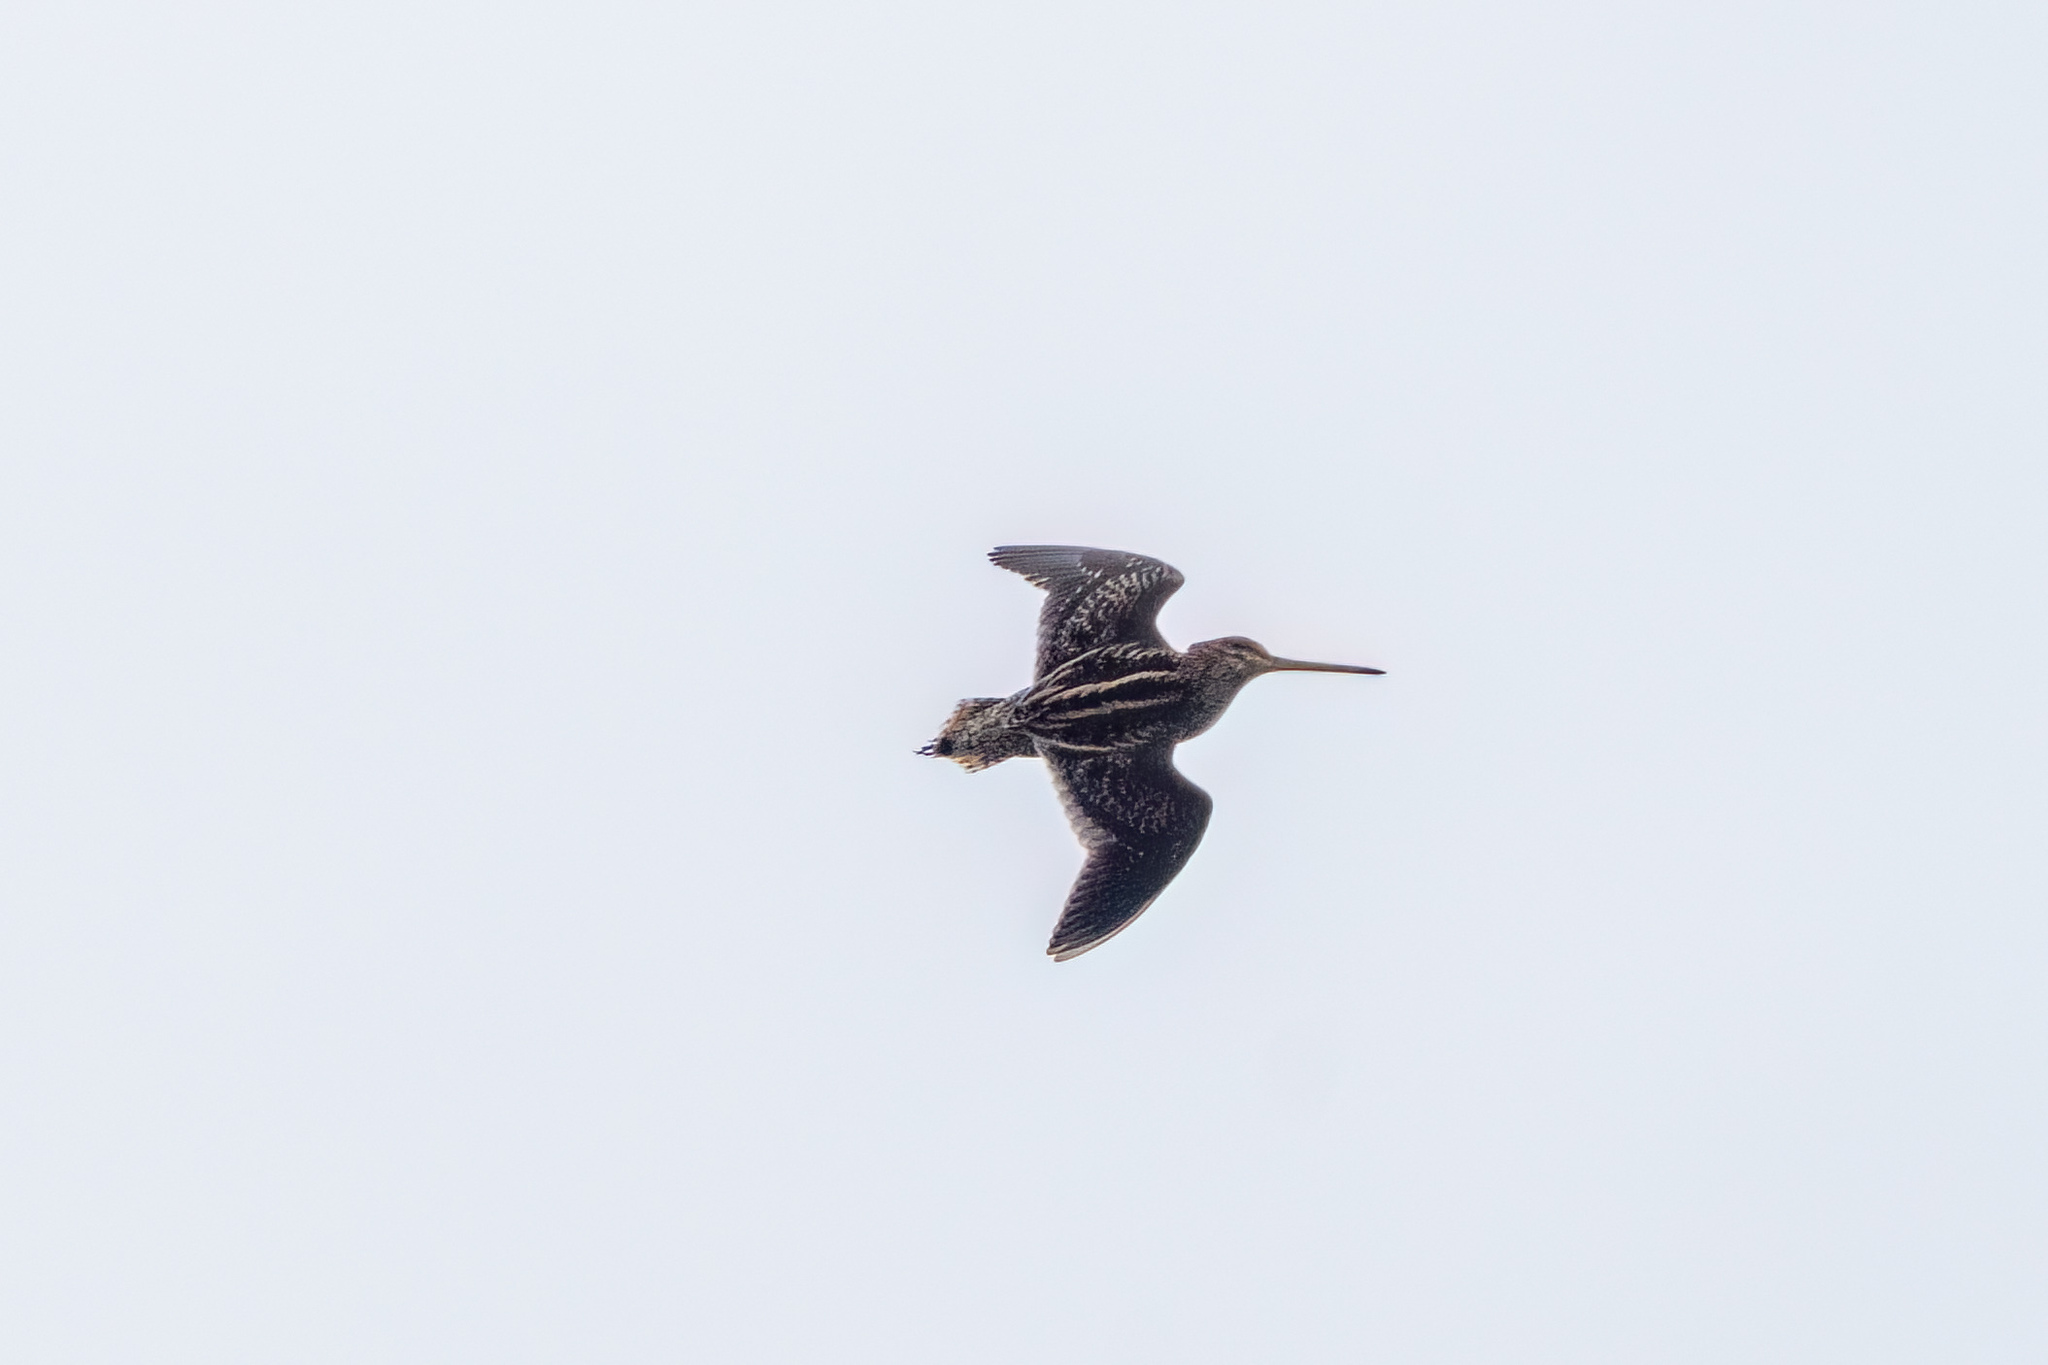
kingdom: Animalia
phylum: Chordata
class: Aves
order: Charadriiformes
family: Scolopacidae
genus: Gallinago
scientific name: Gallinago delicata
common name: Wilson's snipe
